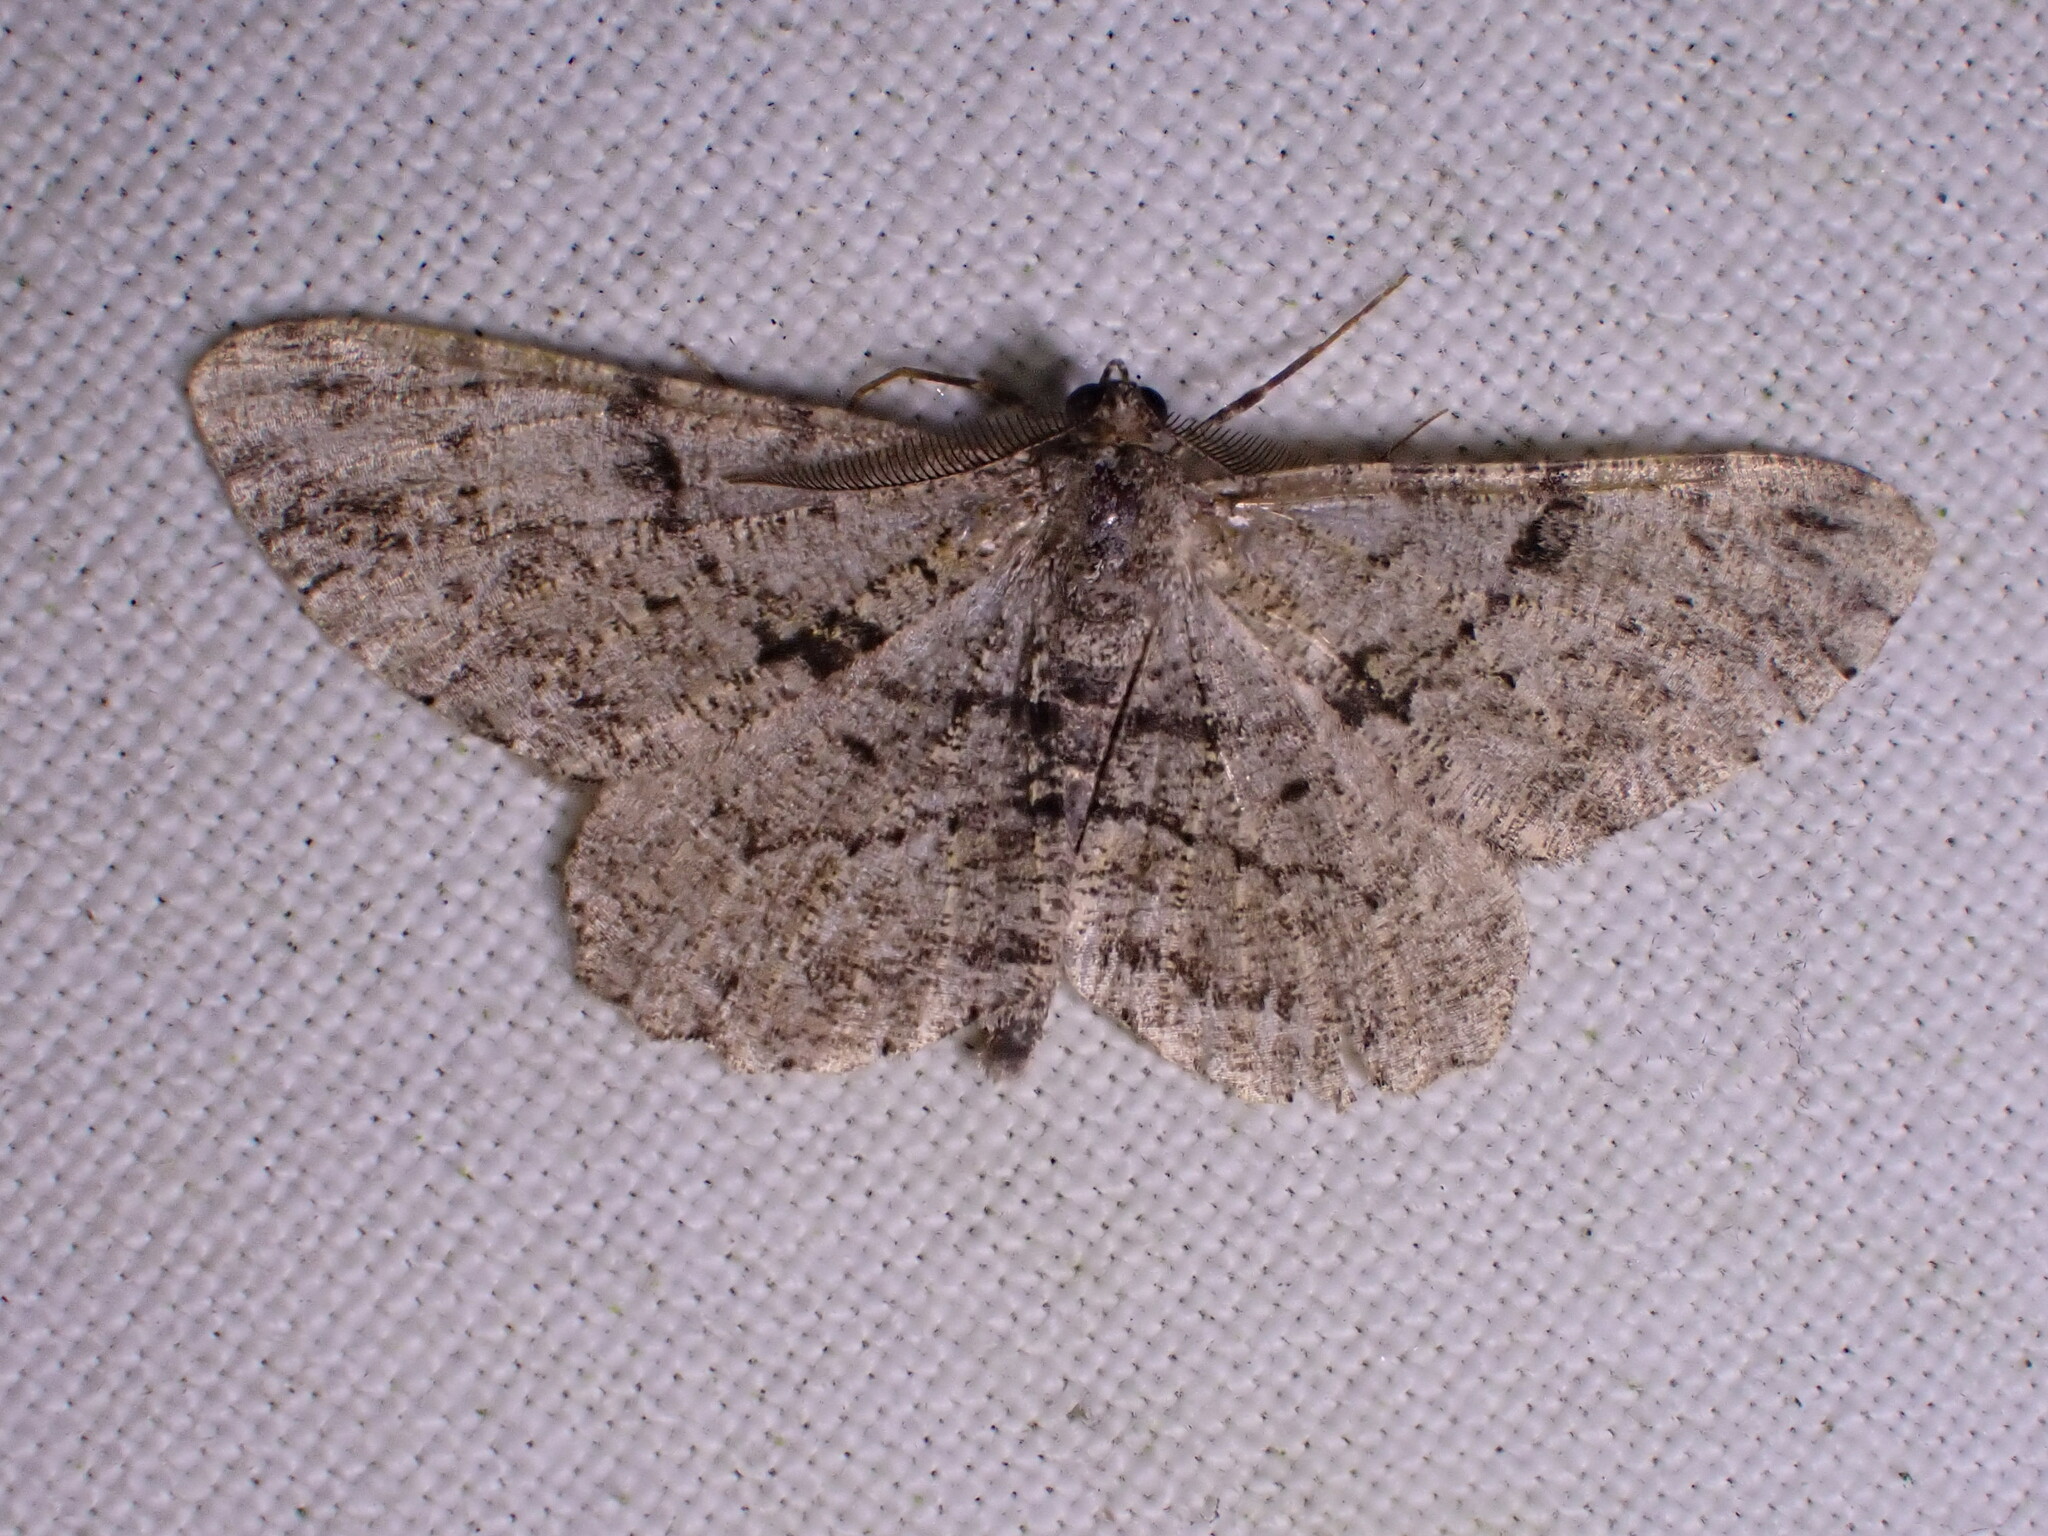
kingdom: Animalia
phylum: Arthropoda
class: Insecta
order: Lepidoptera
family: Geometridae
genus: Peribatodes
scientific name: Peribatodes rhomboidaria
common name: Willow beauty
